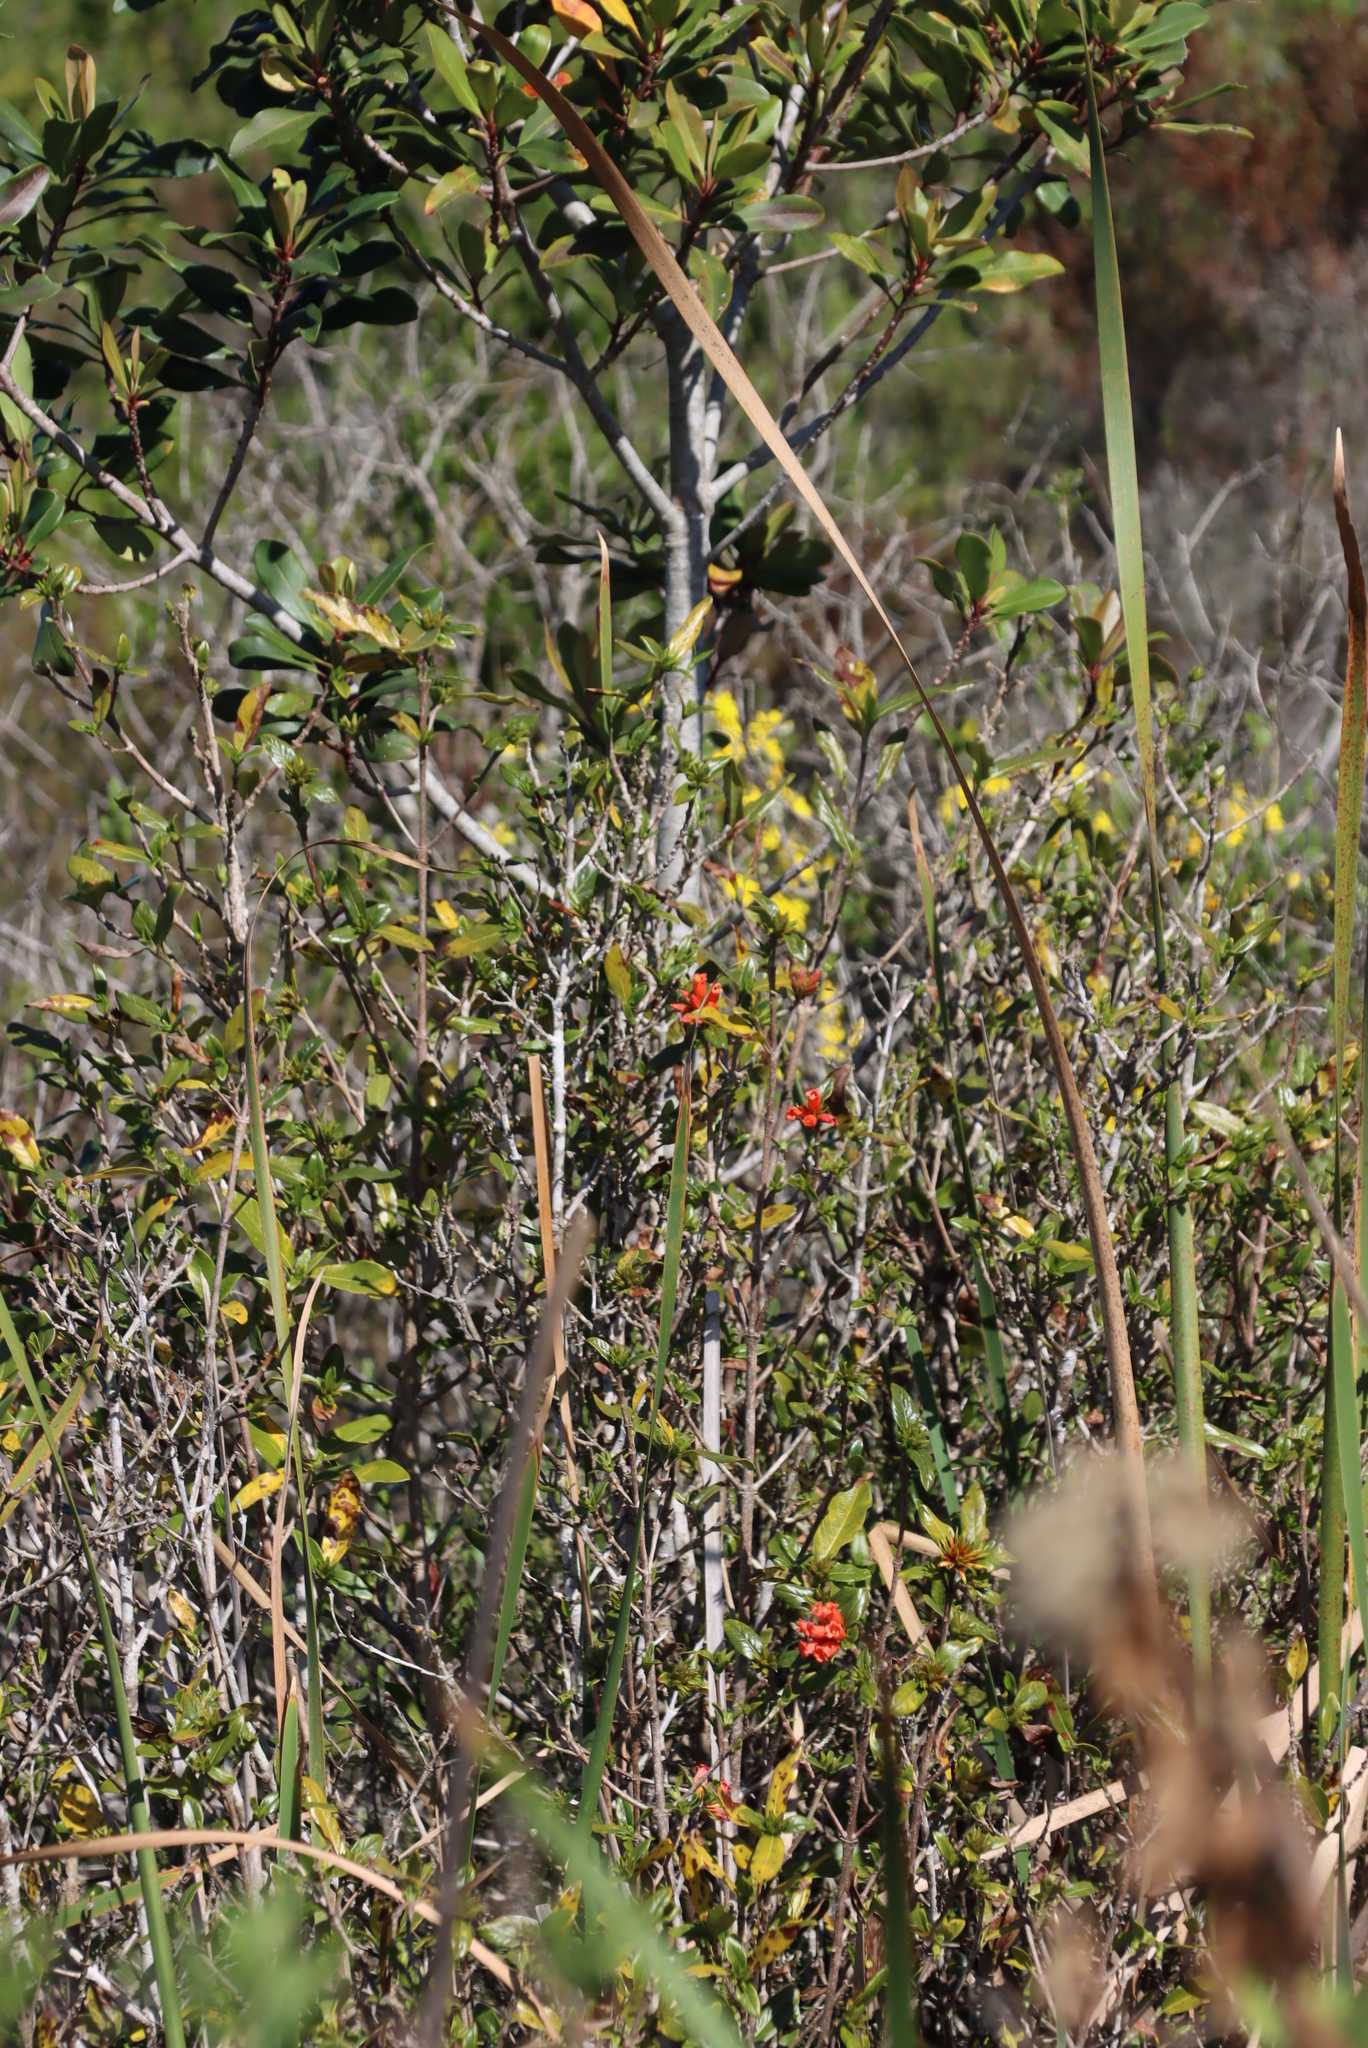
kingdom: Plantae
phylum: Tracheophyta
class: Magnoliopsida
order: Gentianales
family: Rubiaceae
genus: Burchellia
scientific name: Burchellia bubalina
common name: Wild pomegranate
